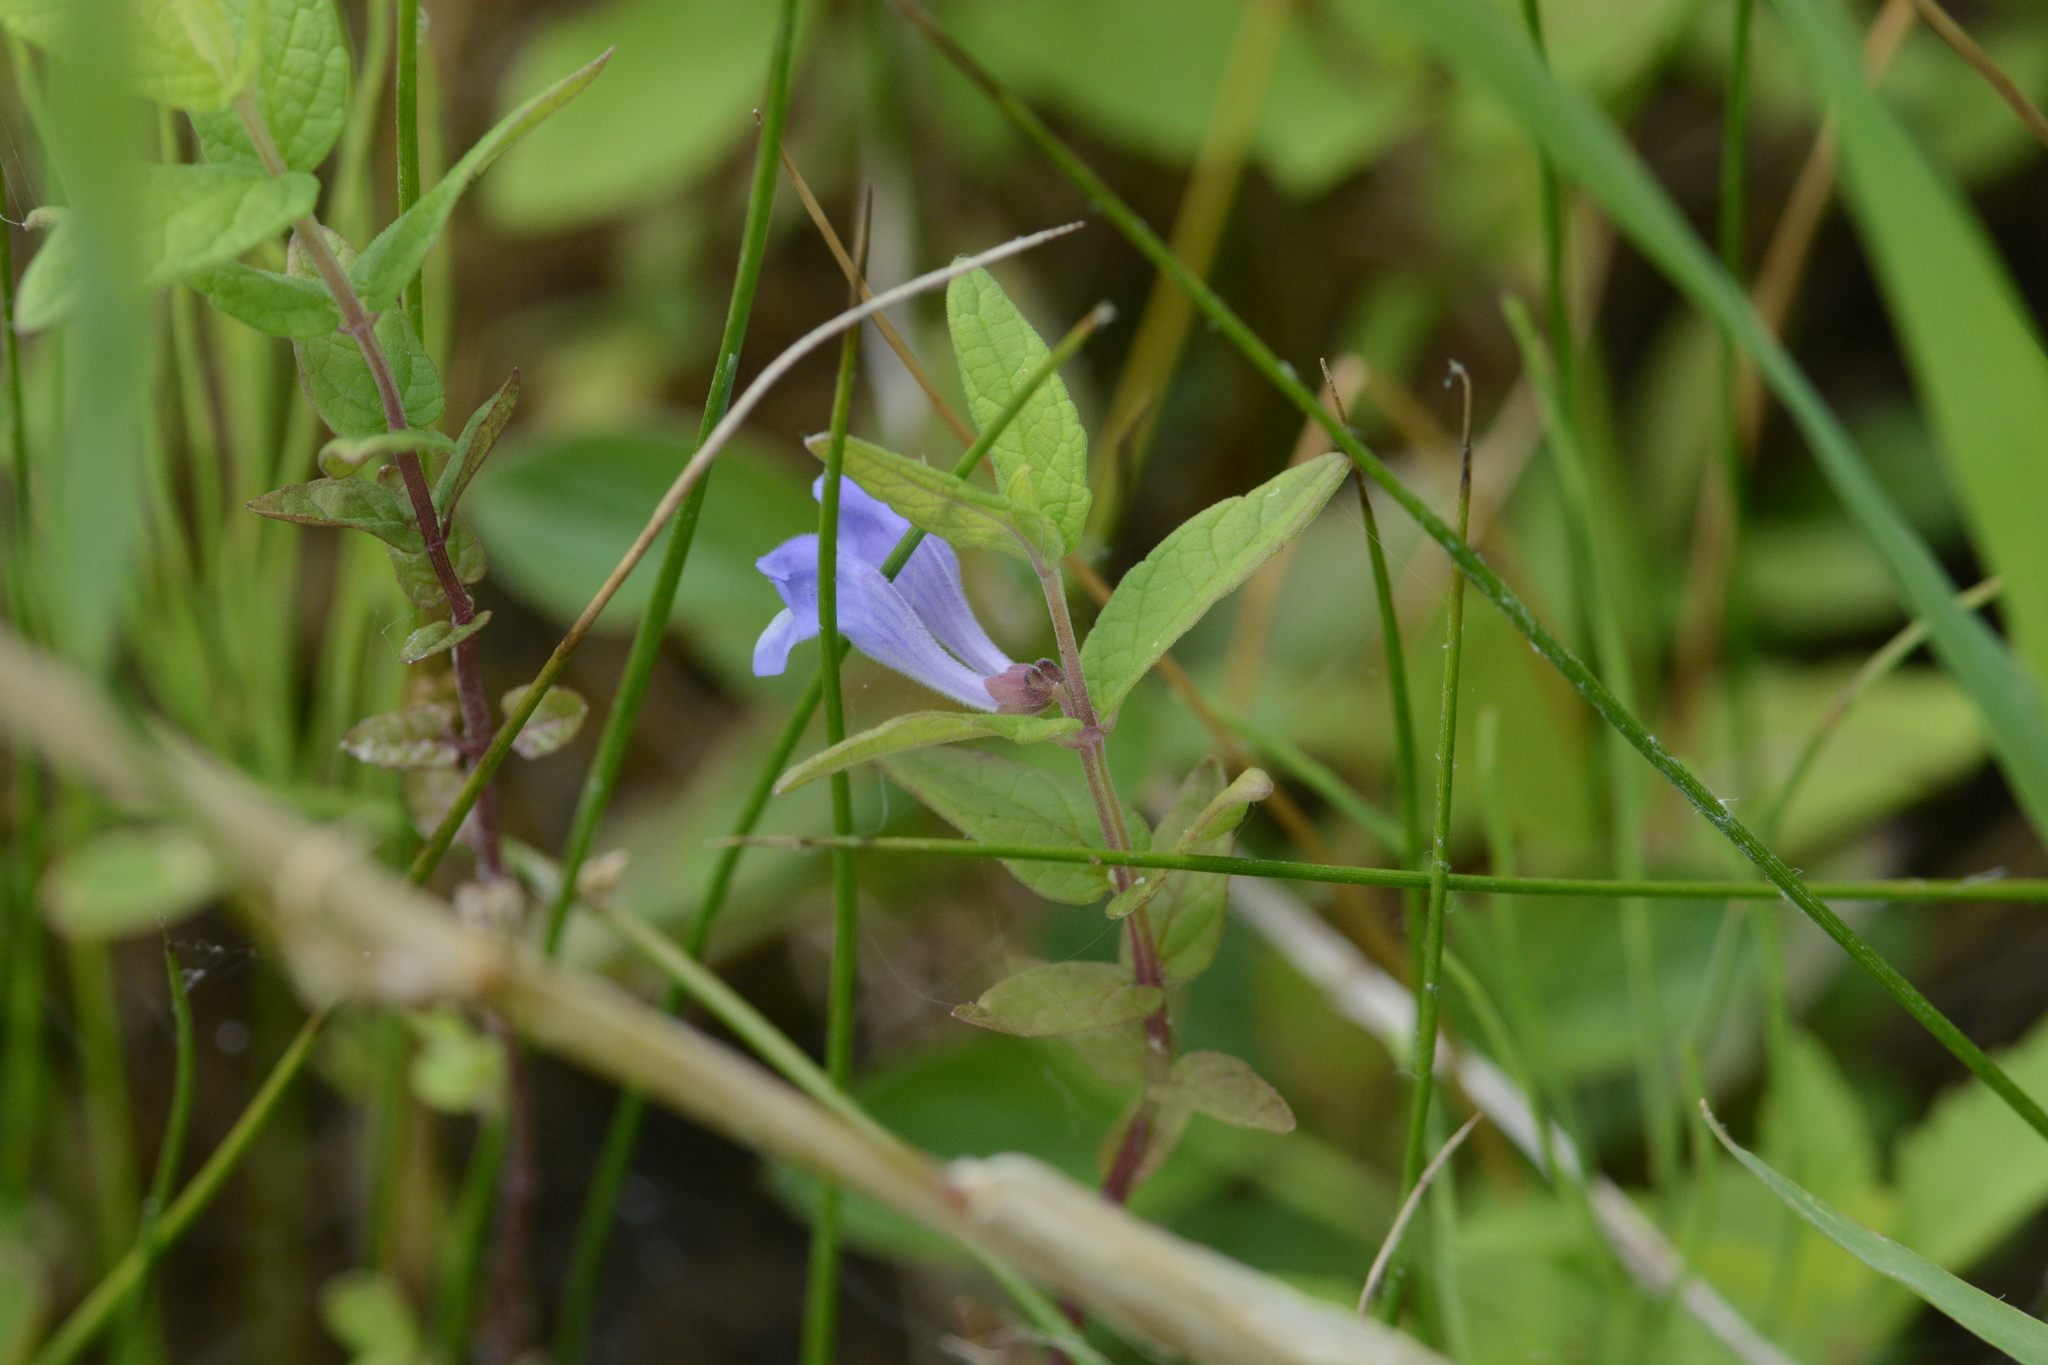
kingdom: Plantae
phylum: Tracheophyta
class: Magnoliopsida
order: Lamiales
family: Lamiaceae
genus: Scutellaria
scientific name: Scutellaria galericulata
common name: Skullcap
